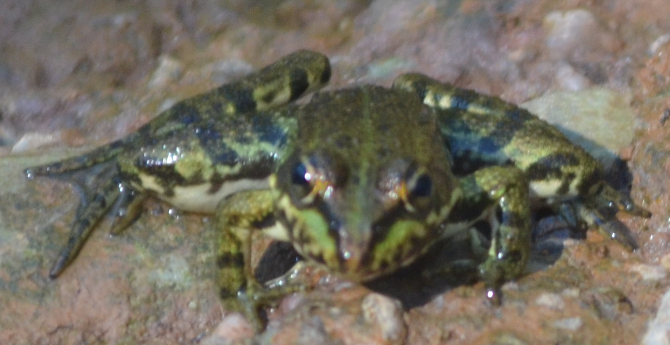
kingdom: Animalia
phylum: Chordata
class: Amphibia
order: Anura
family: Ranidae
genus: Pelophylax
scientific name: Pelophylax perezi
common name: Perez's frog
